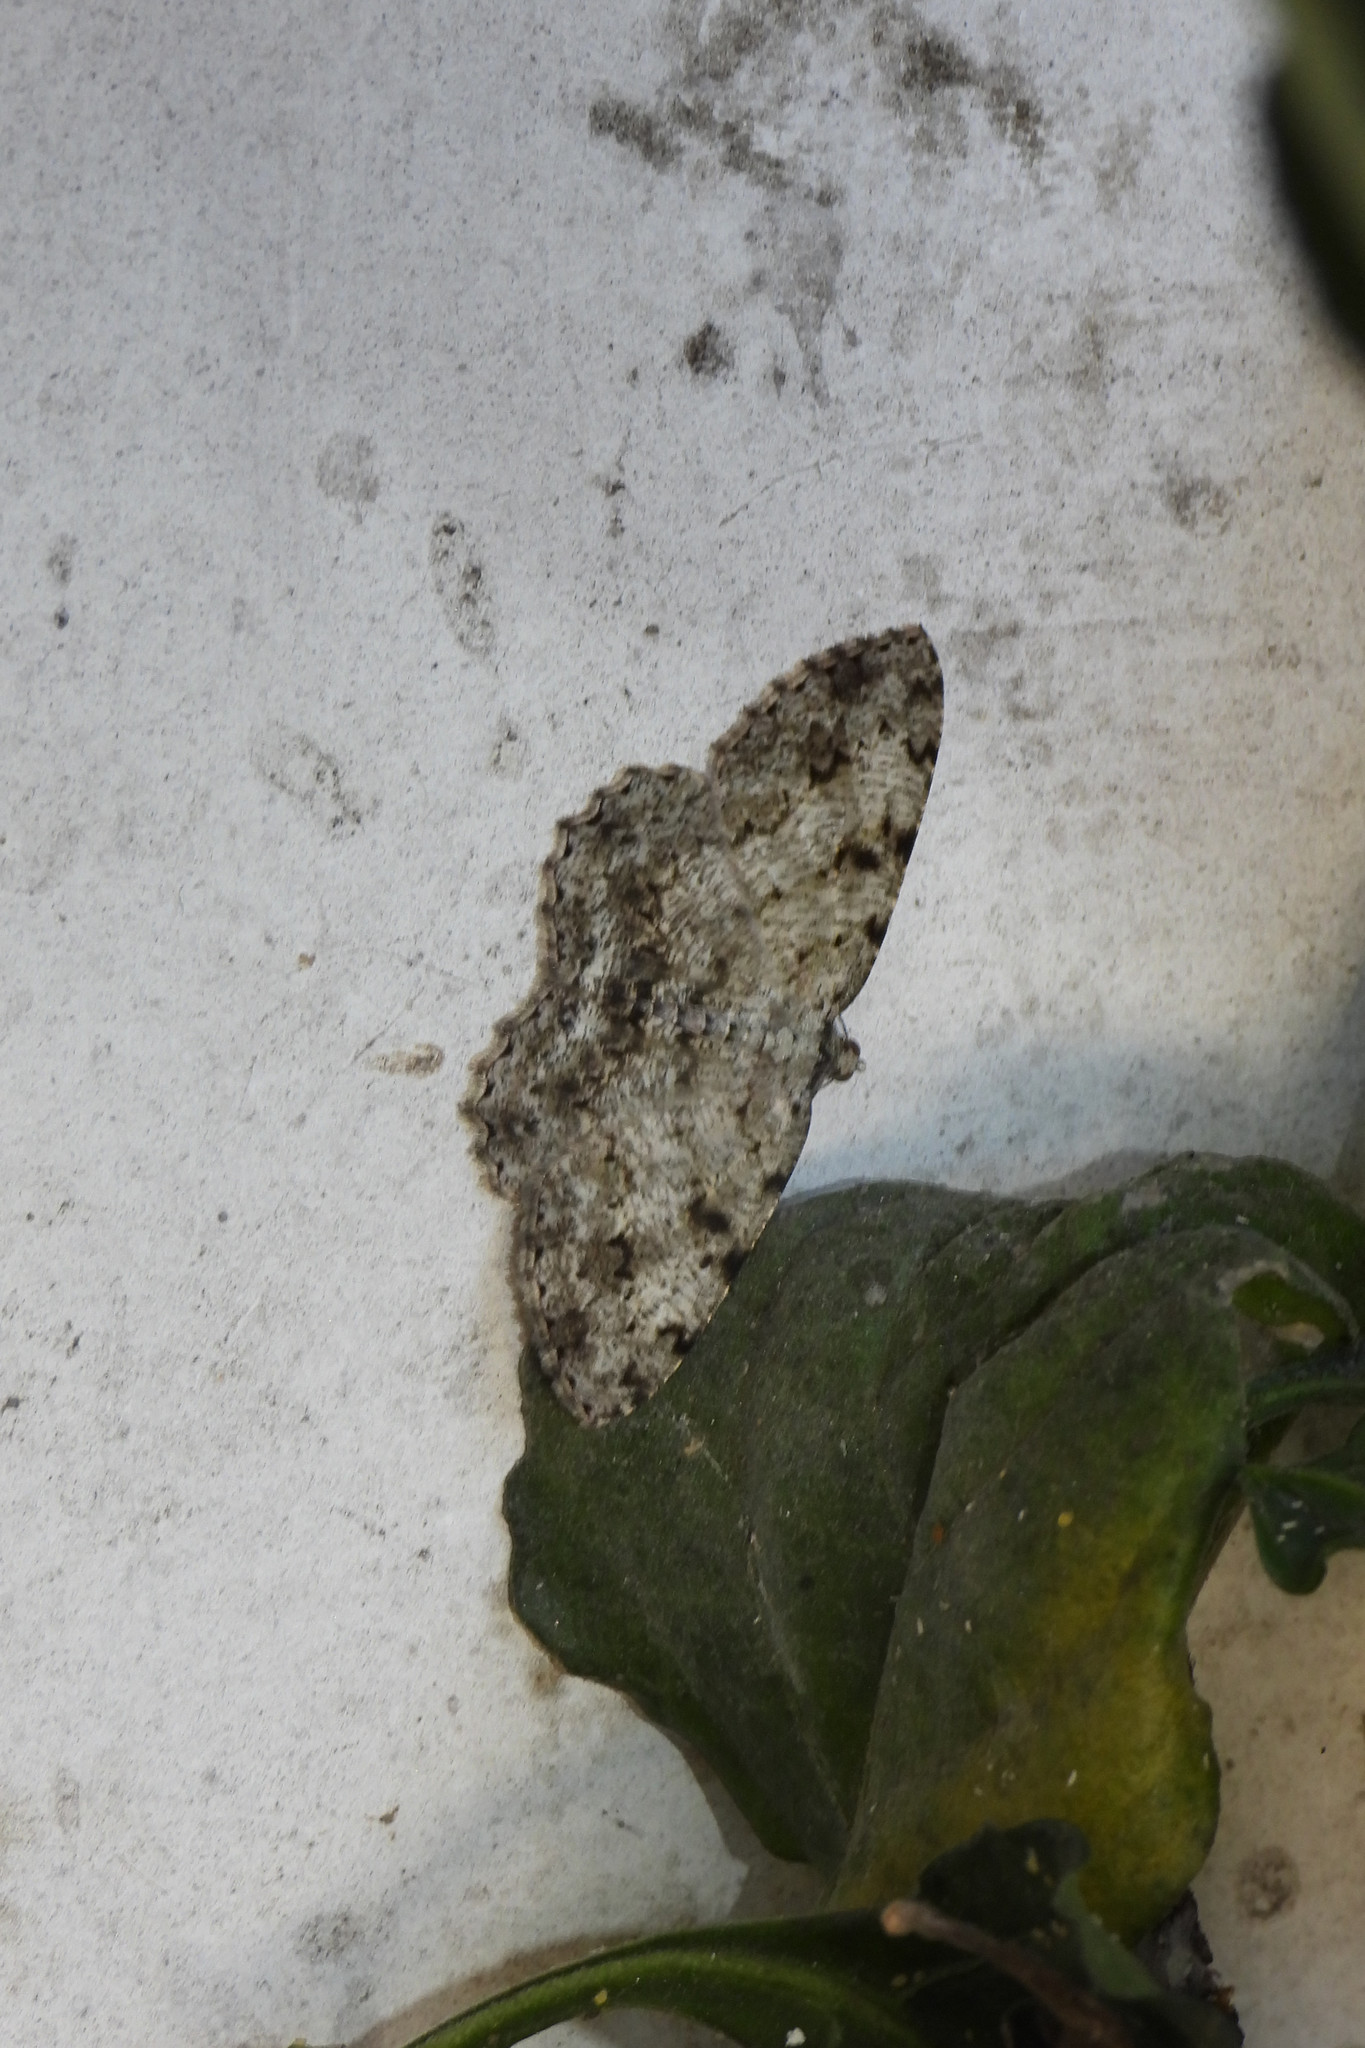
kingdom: Animalia
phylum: Arthropoda
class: Insecta
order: Lepidoptera
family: Geometridae
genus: Gnophos
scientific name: Gnophos tephrosiaria
